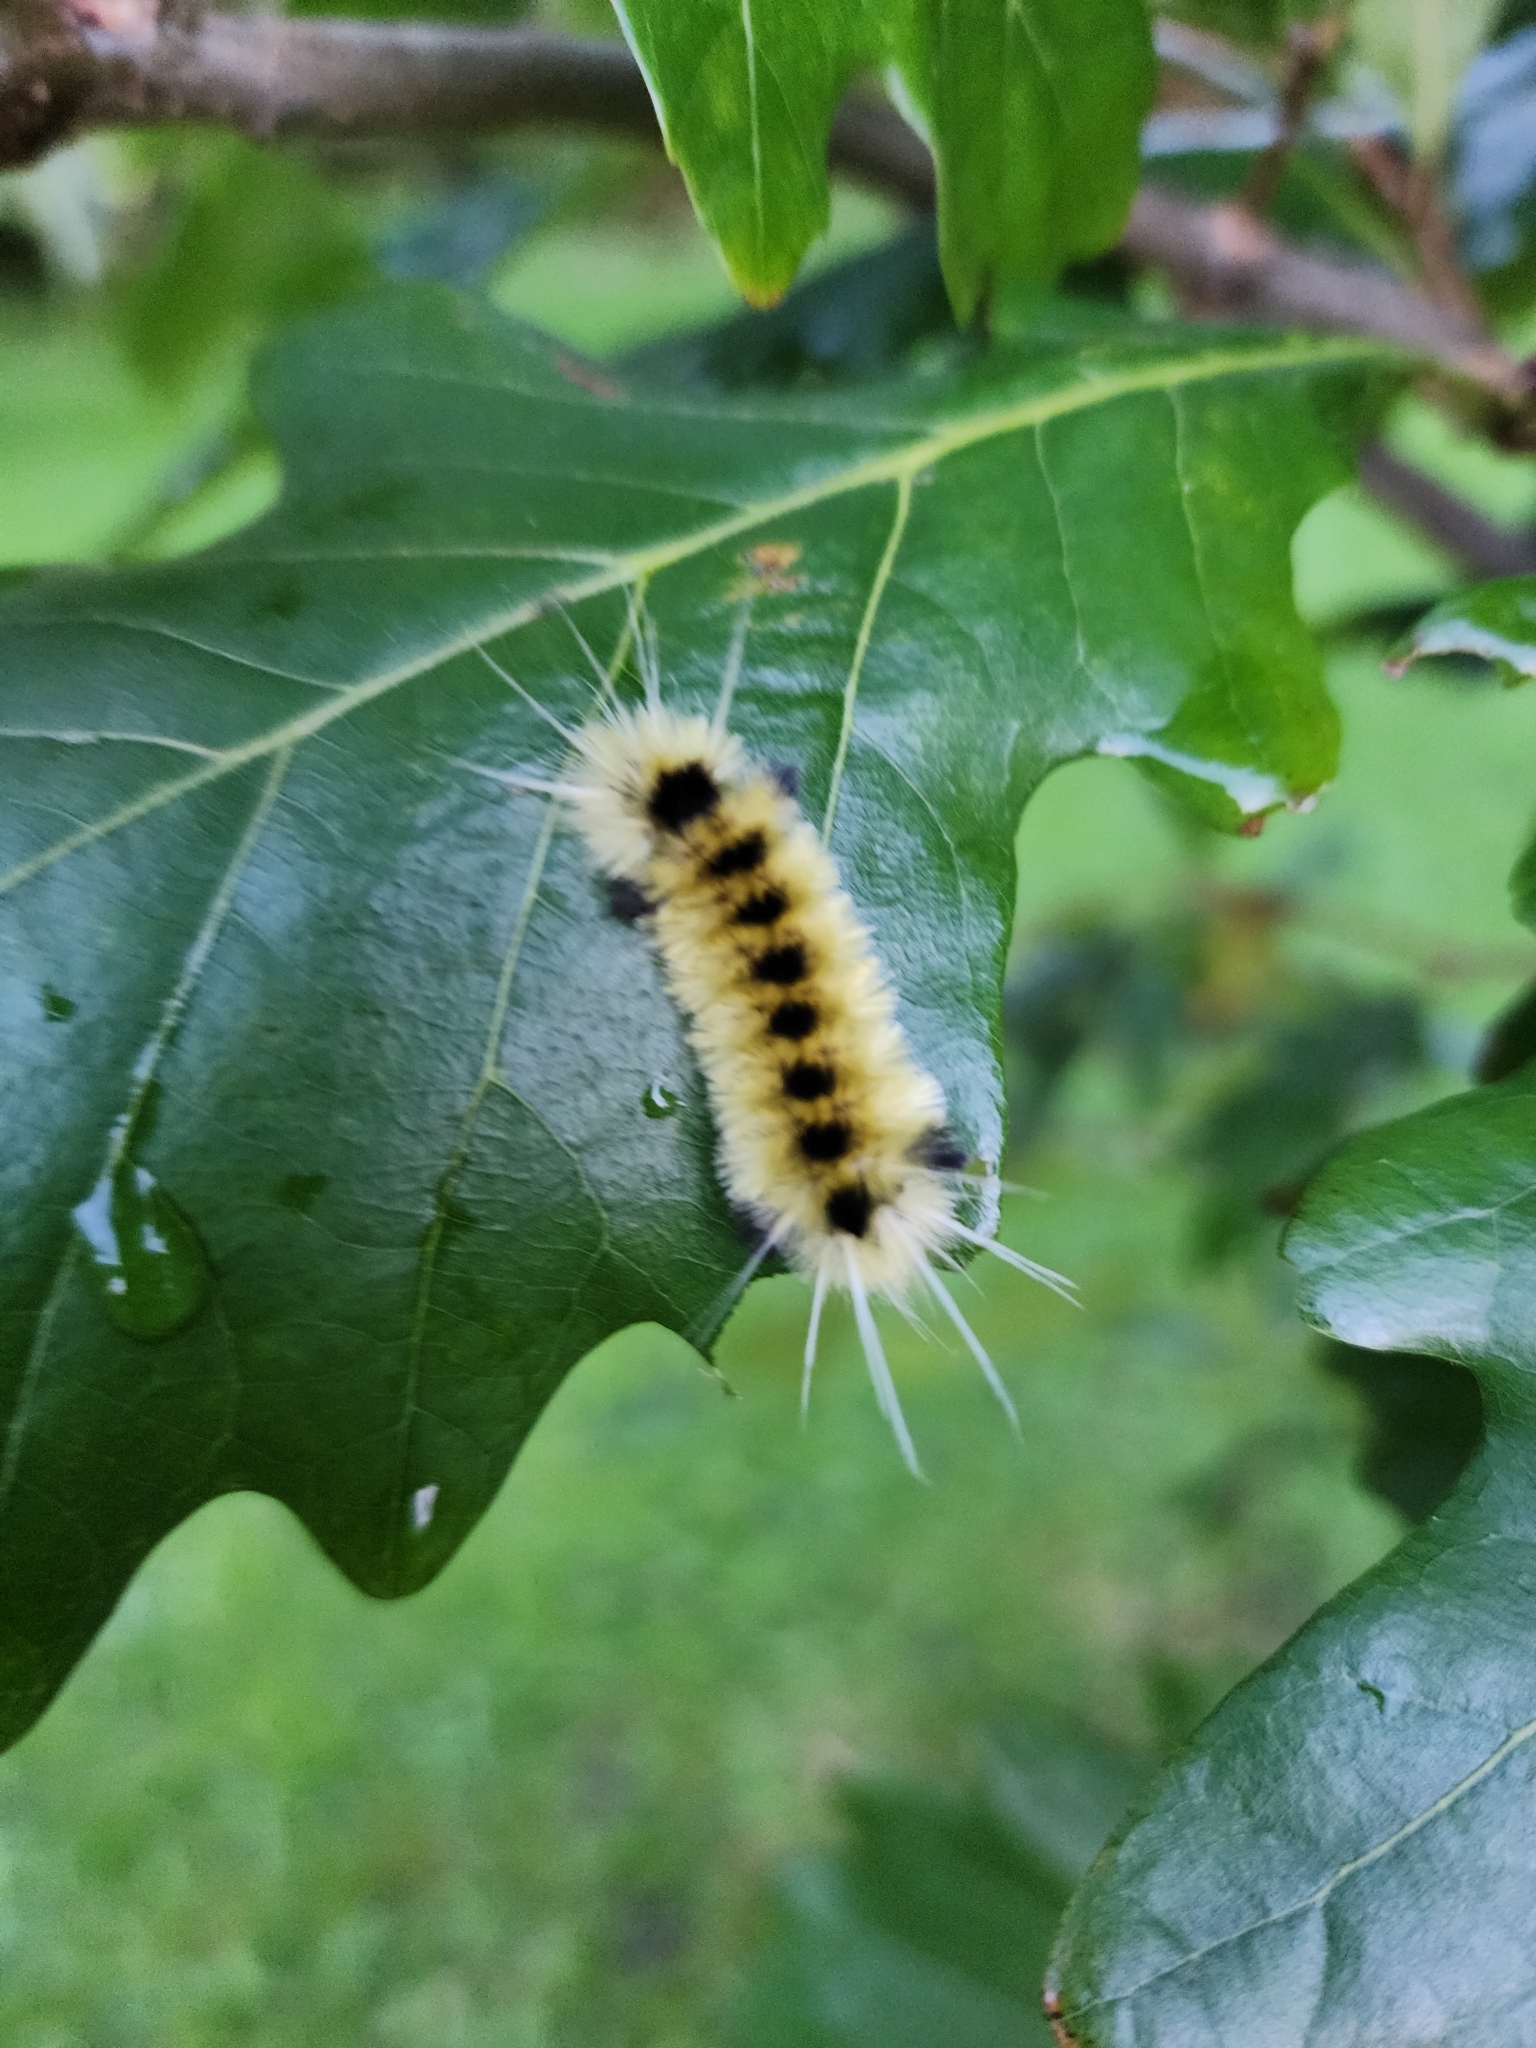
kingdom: Animalia
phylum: Arthropoda
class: Insecta
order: Lepidoptera
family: Erebidae
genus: Lophocampa
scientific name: Lophocampa maculata
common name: Spotted tussock moth
